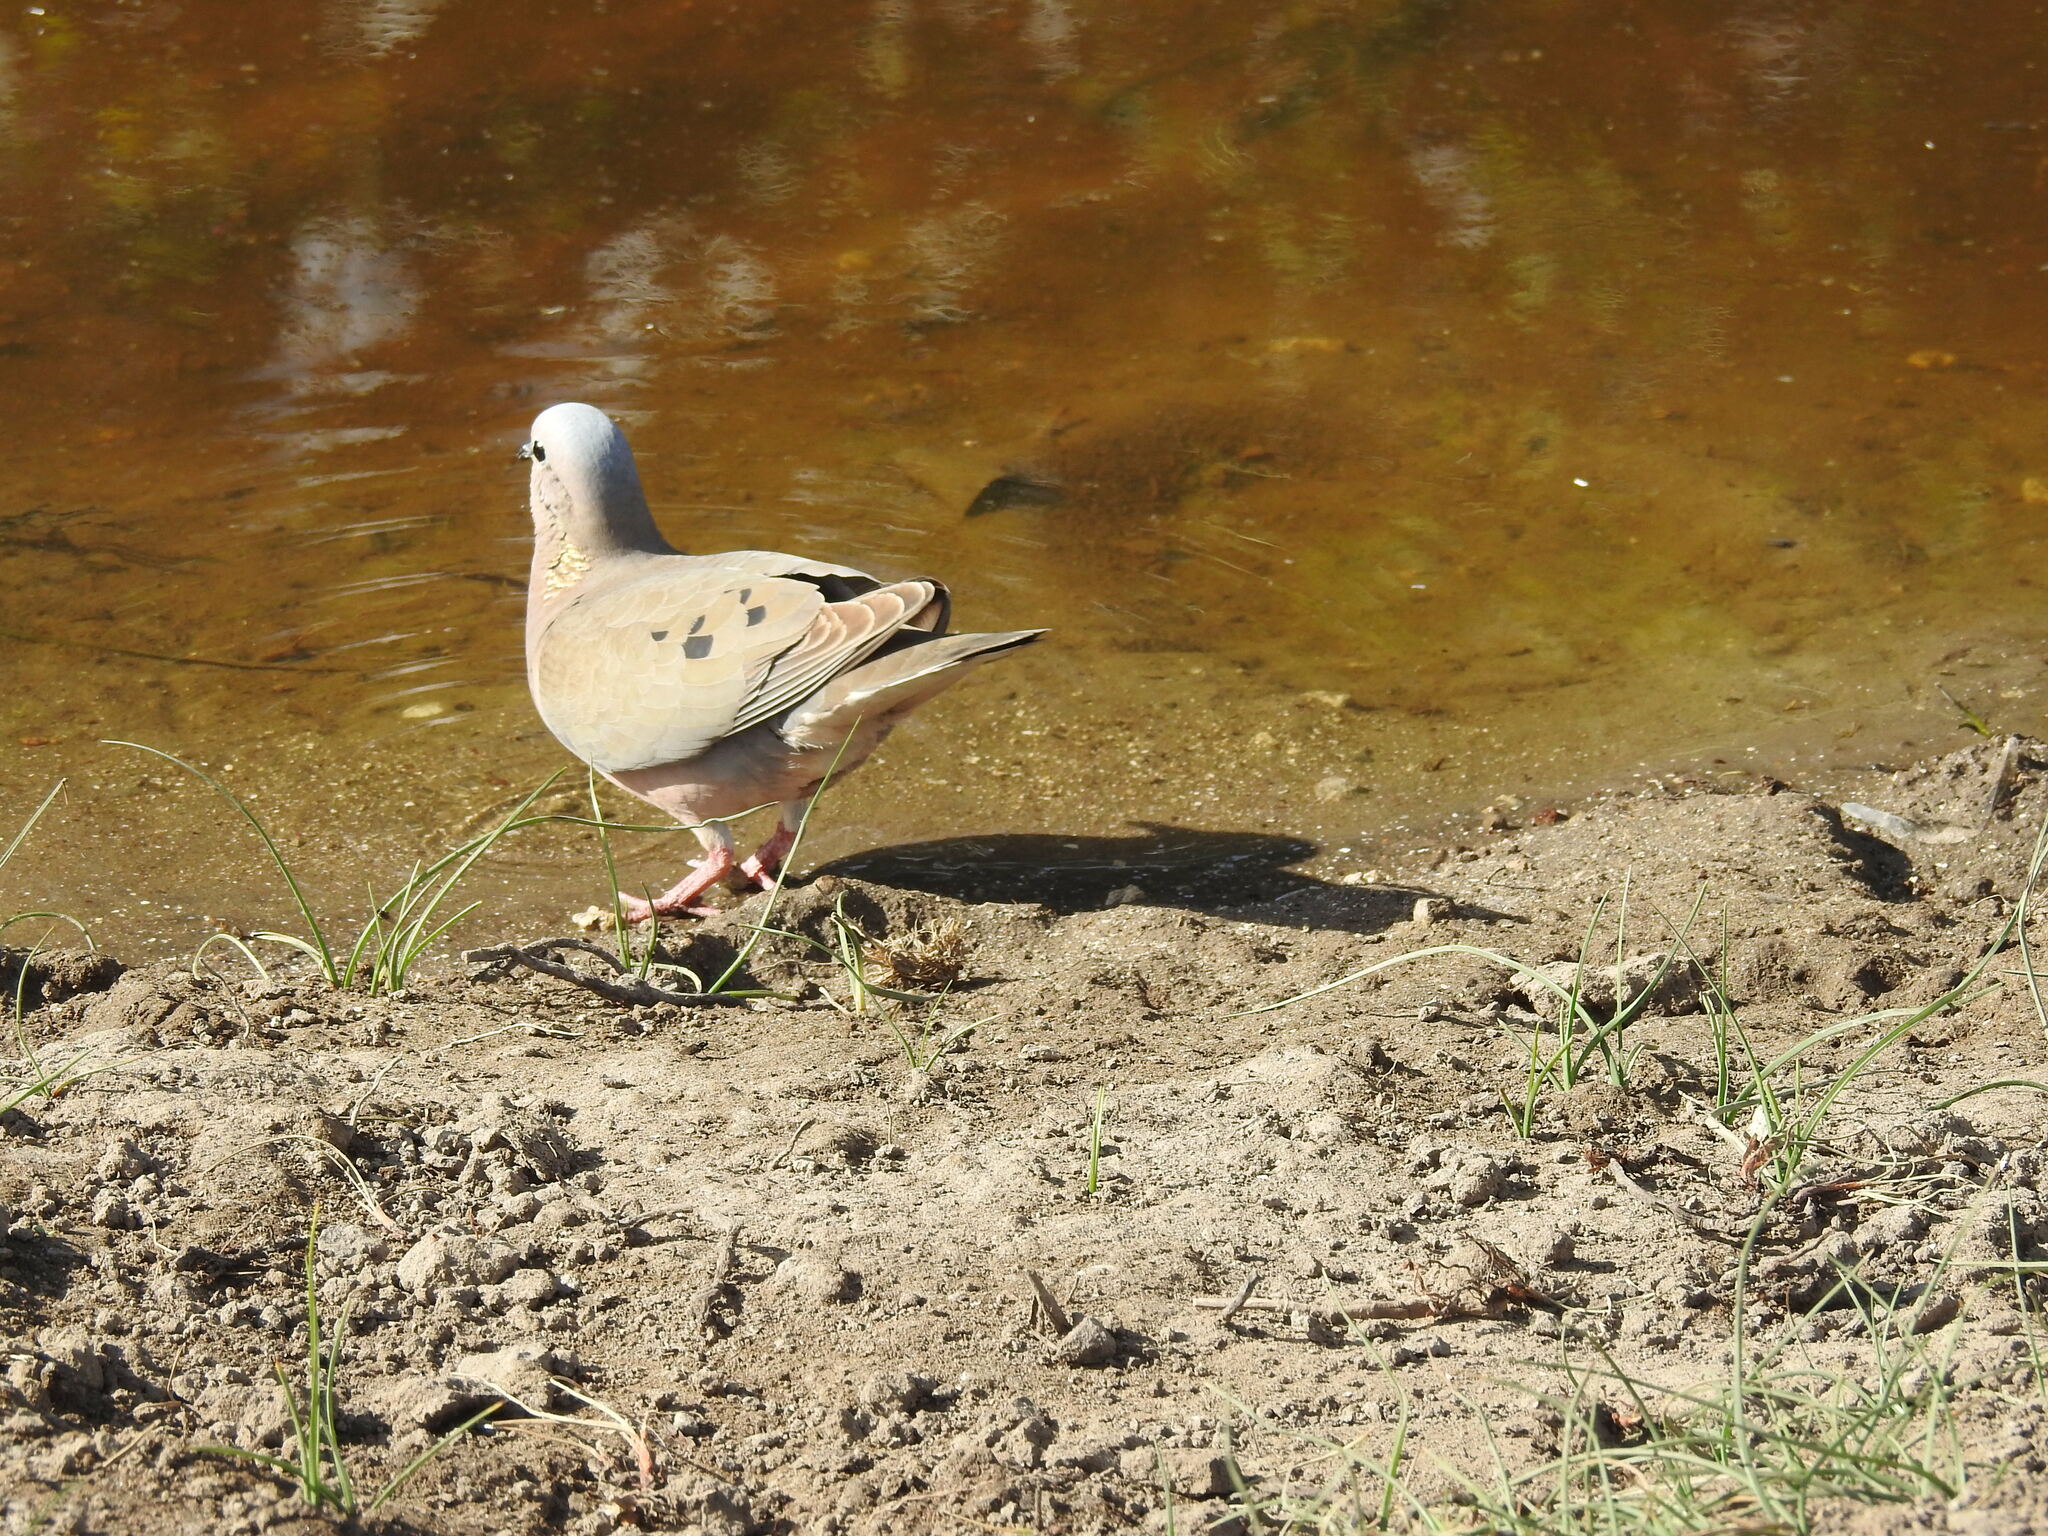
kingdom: Animalia
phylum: Chordata
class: Aves
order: Columbiformes
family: Columbidae
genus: Zenaida
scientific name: Zenaida auriculata
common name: Eared dove
